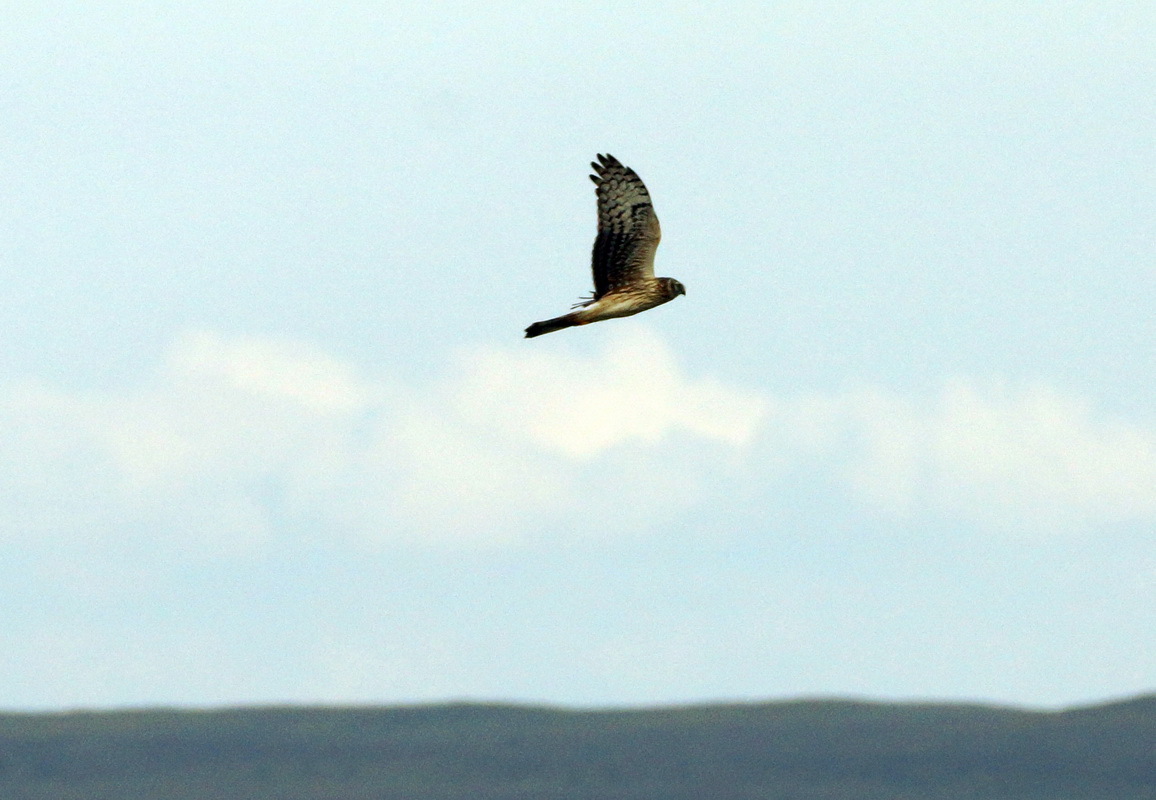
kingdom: Animalia
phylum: Chordata
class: Aves
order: Accipitriformes
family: Accipitridae
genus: Circus
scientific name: Circus cyaneus
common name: Hen harrier
